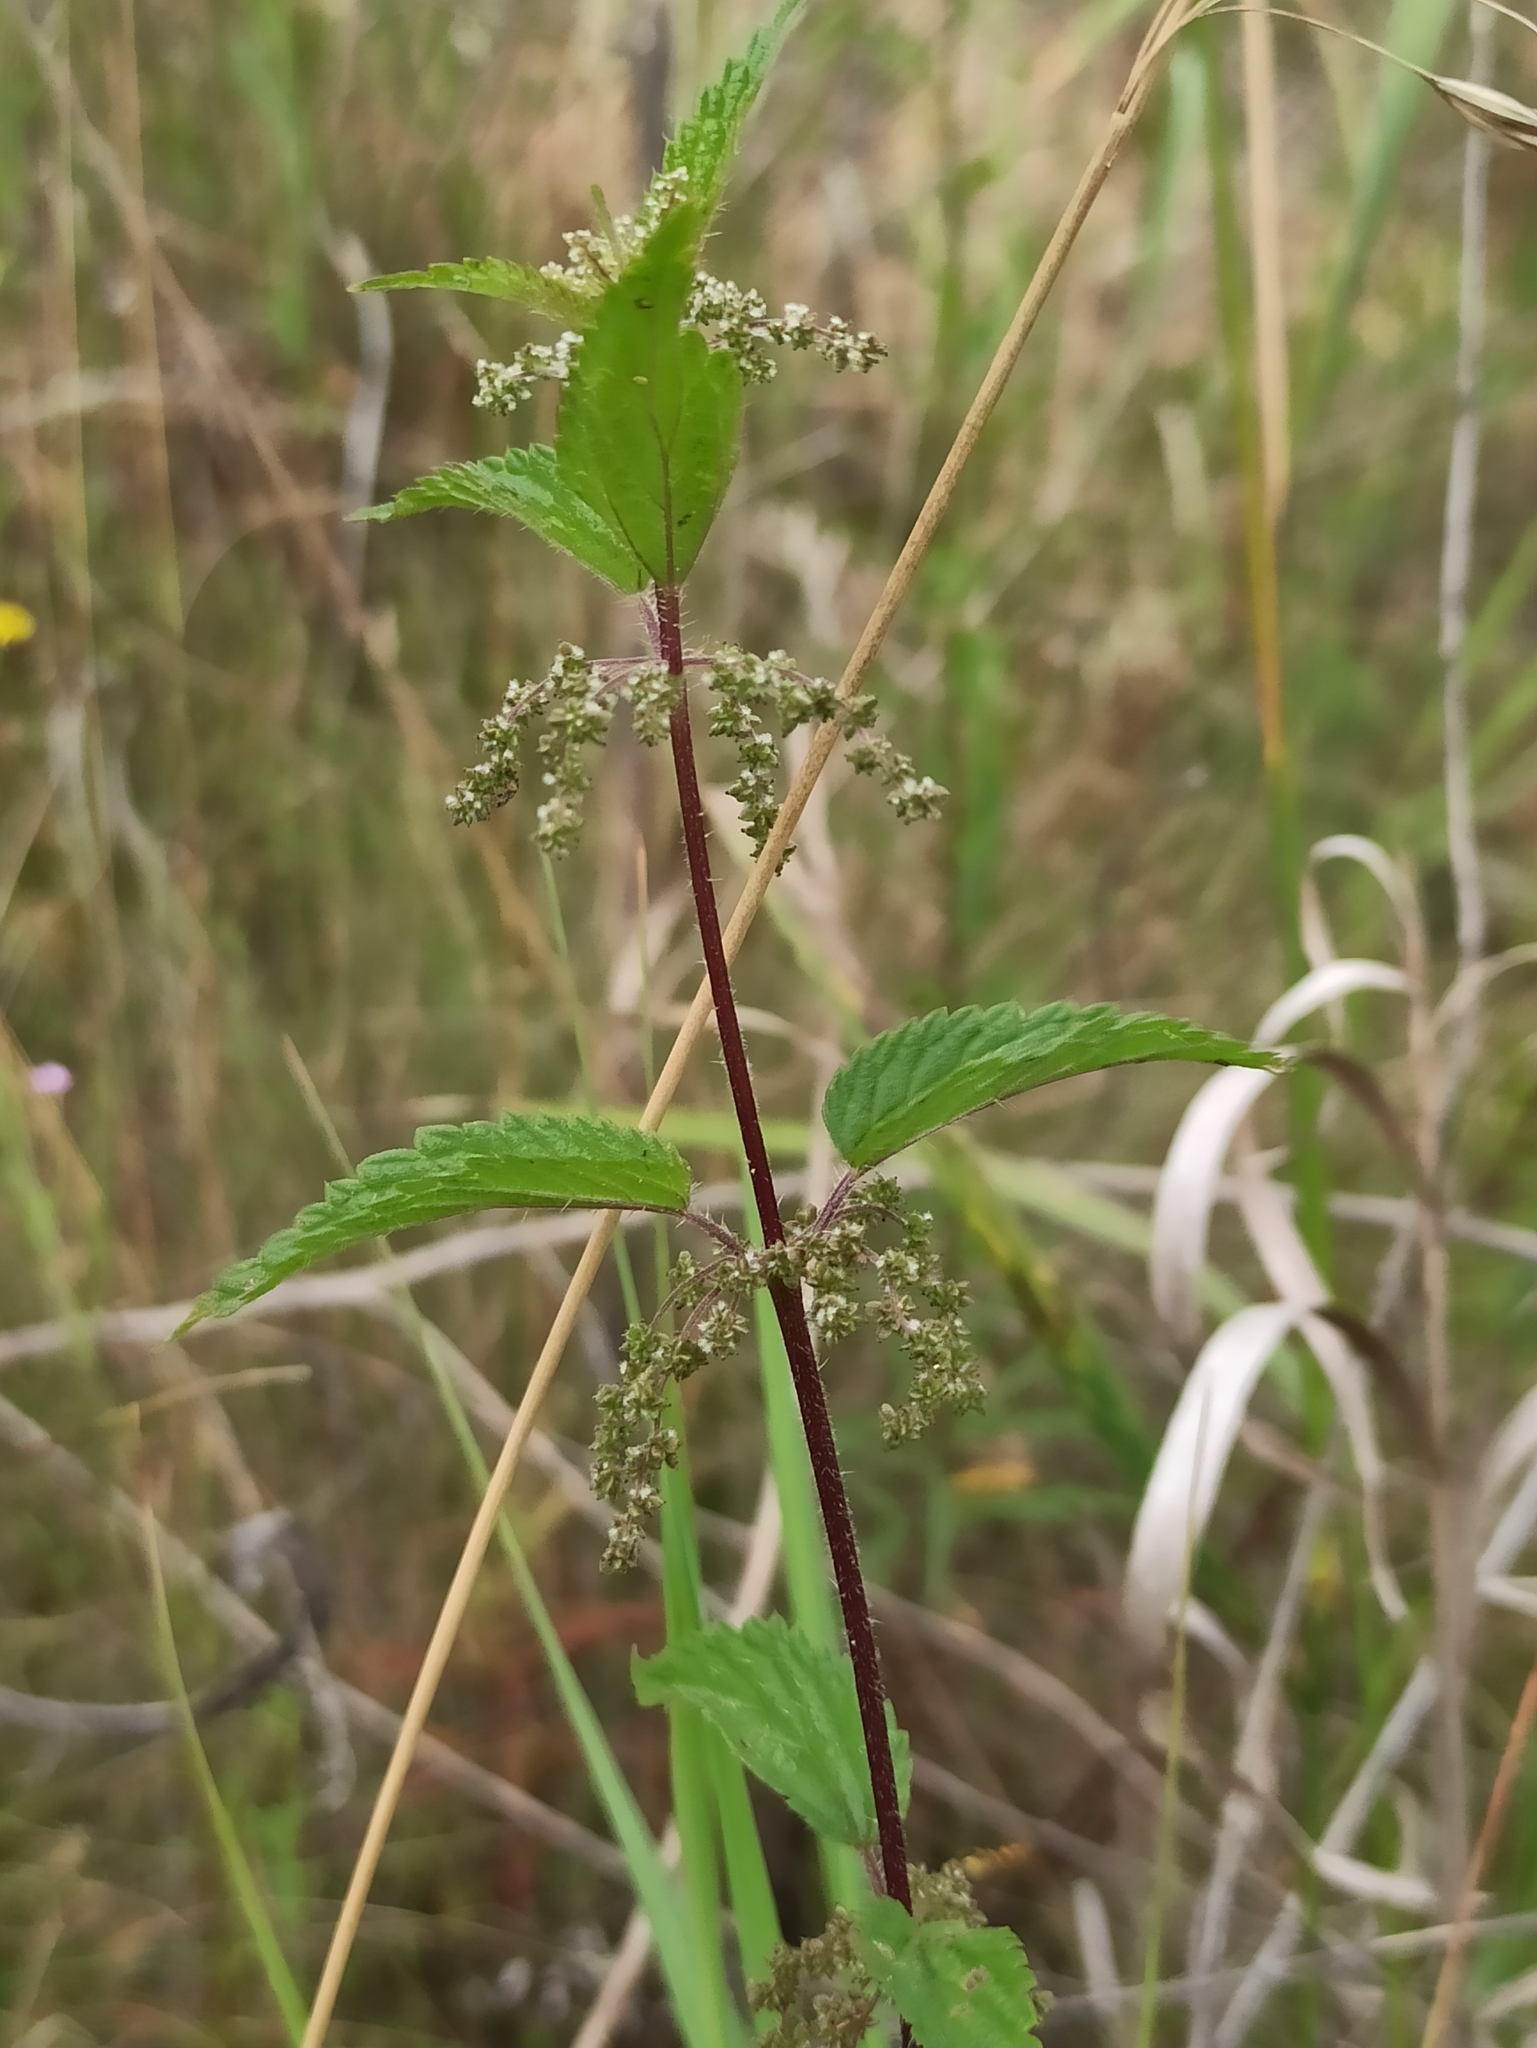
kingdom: Plantae
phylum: Tracheophyta
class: Magnoliopsida
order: Rosales
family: Urticaceae
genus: Urtica
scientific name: Urtica dioica
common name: Common nettle
